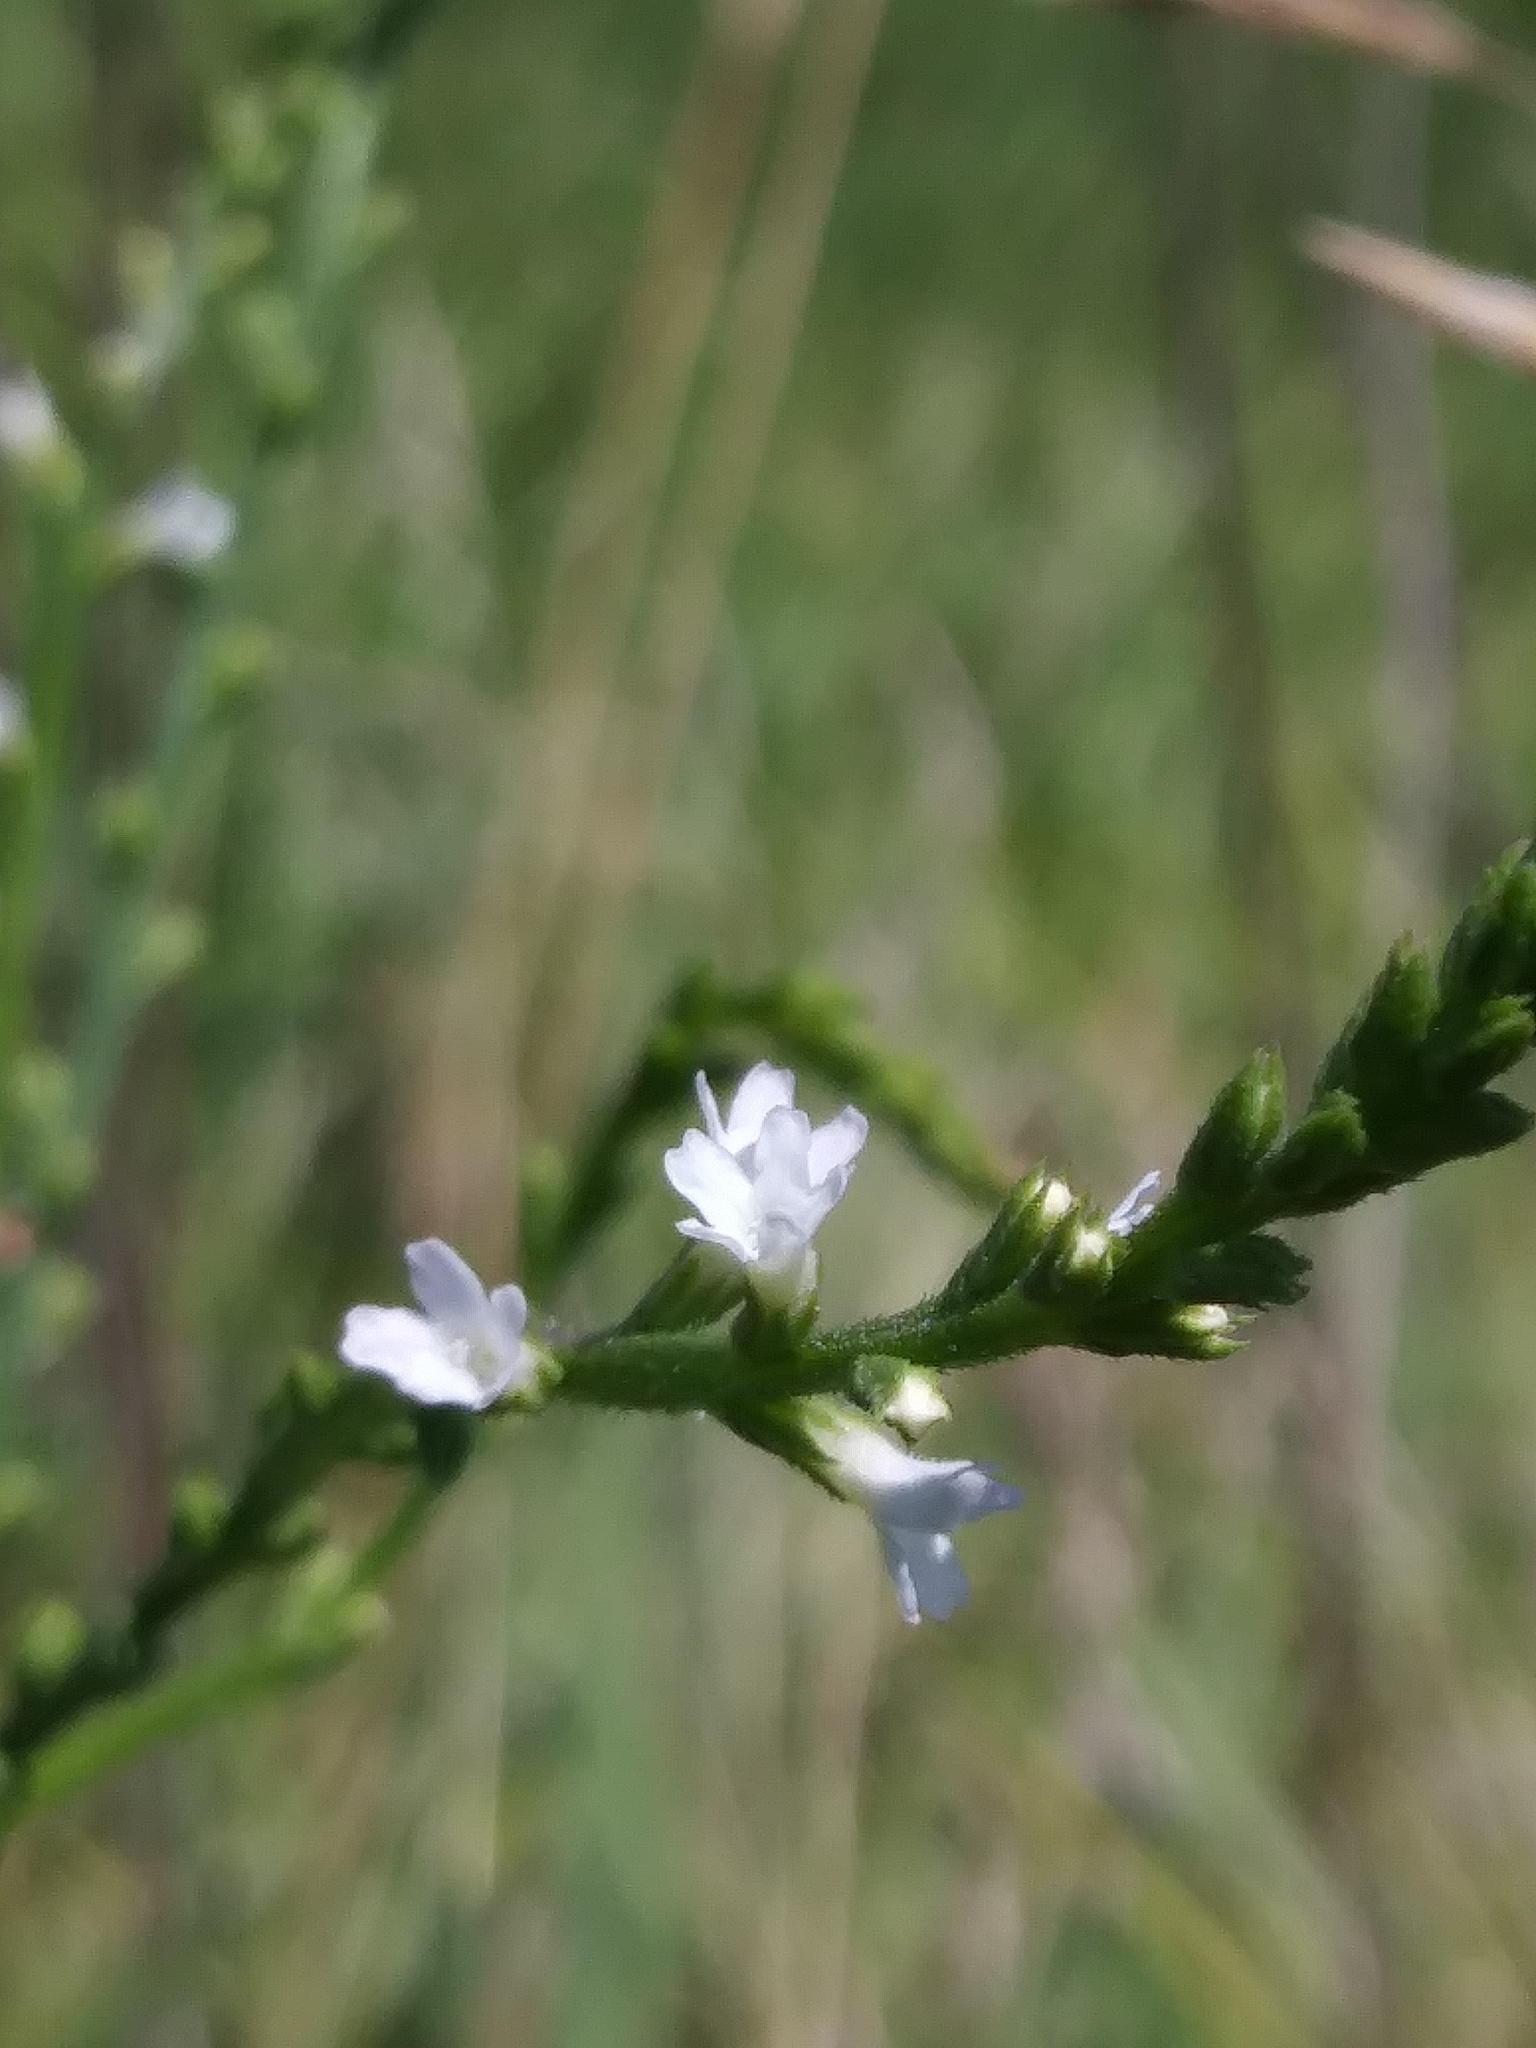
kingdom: Plantae
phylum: Tracheophyta
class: Magnoliopsida
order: Lamiales
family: Verbenaceae
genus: Verbena
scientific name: Verbena urticifolia
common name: Nettle-leaved vervain
